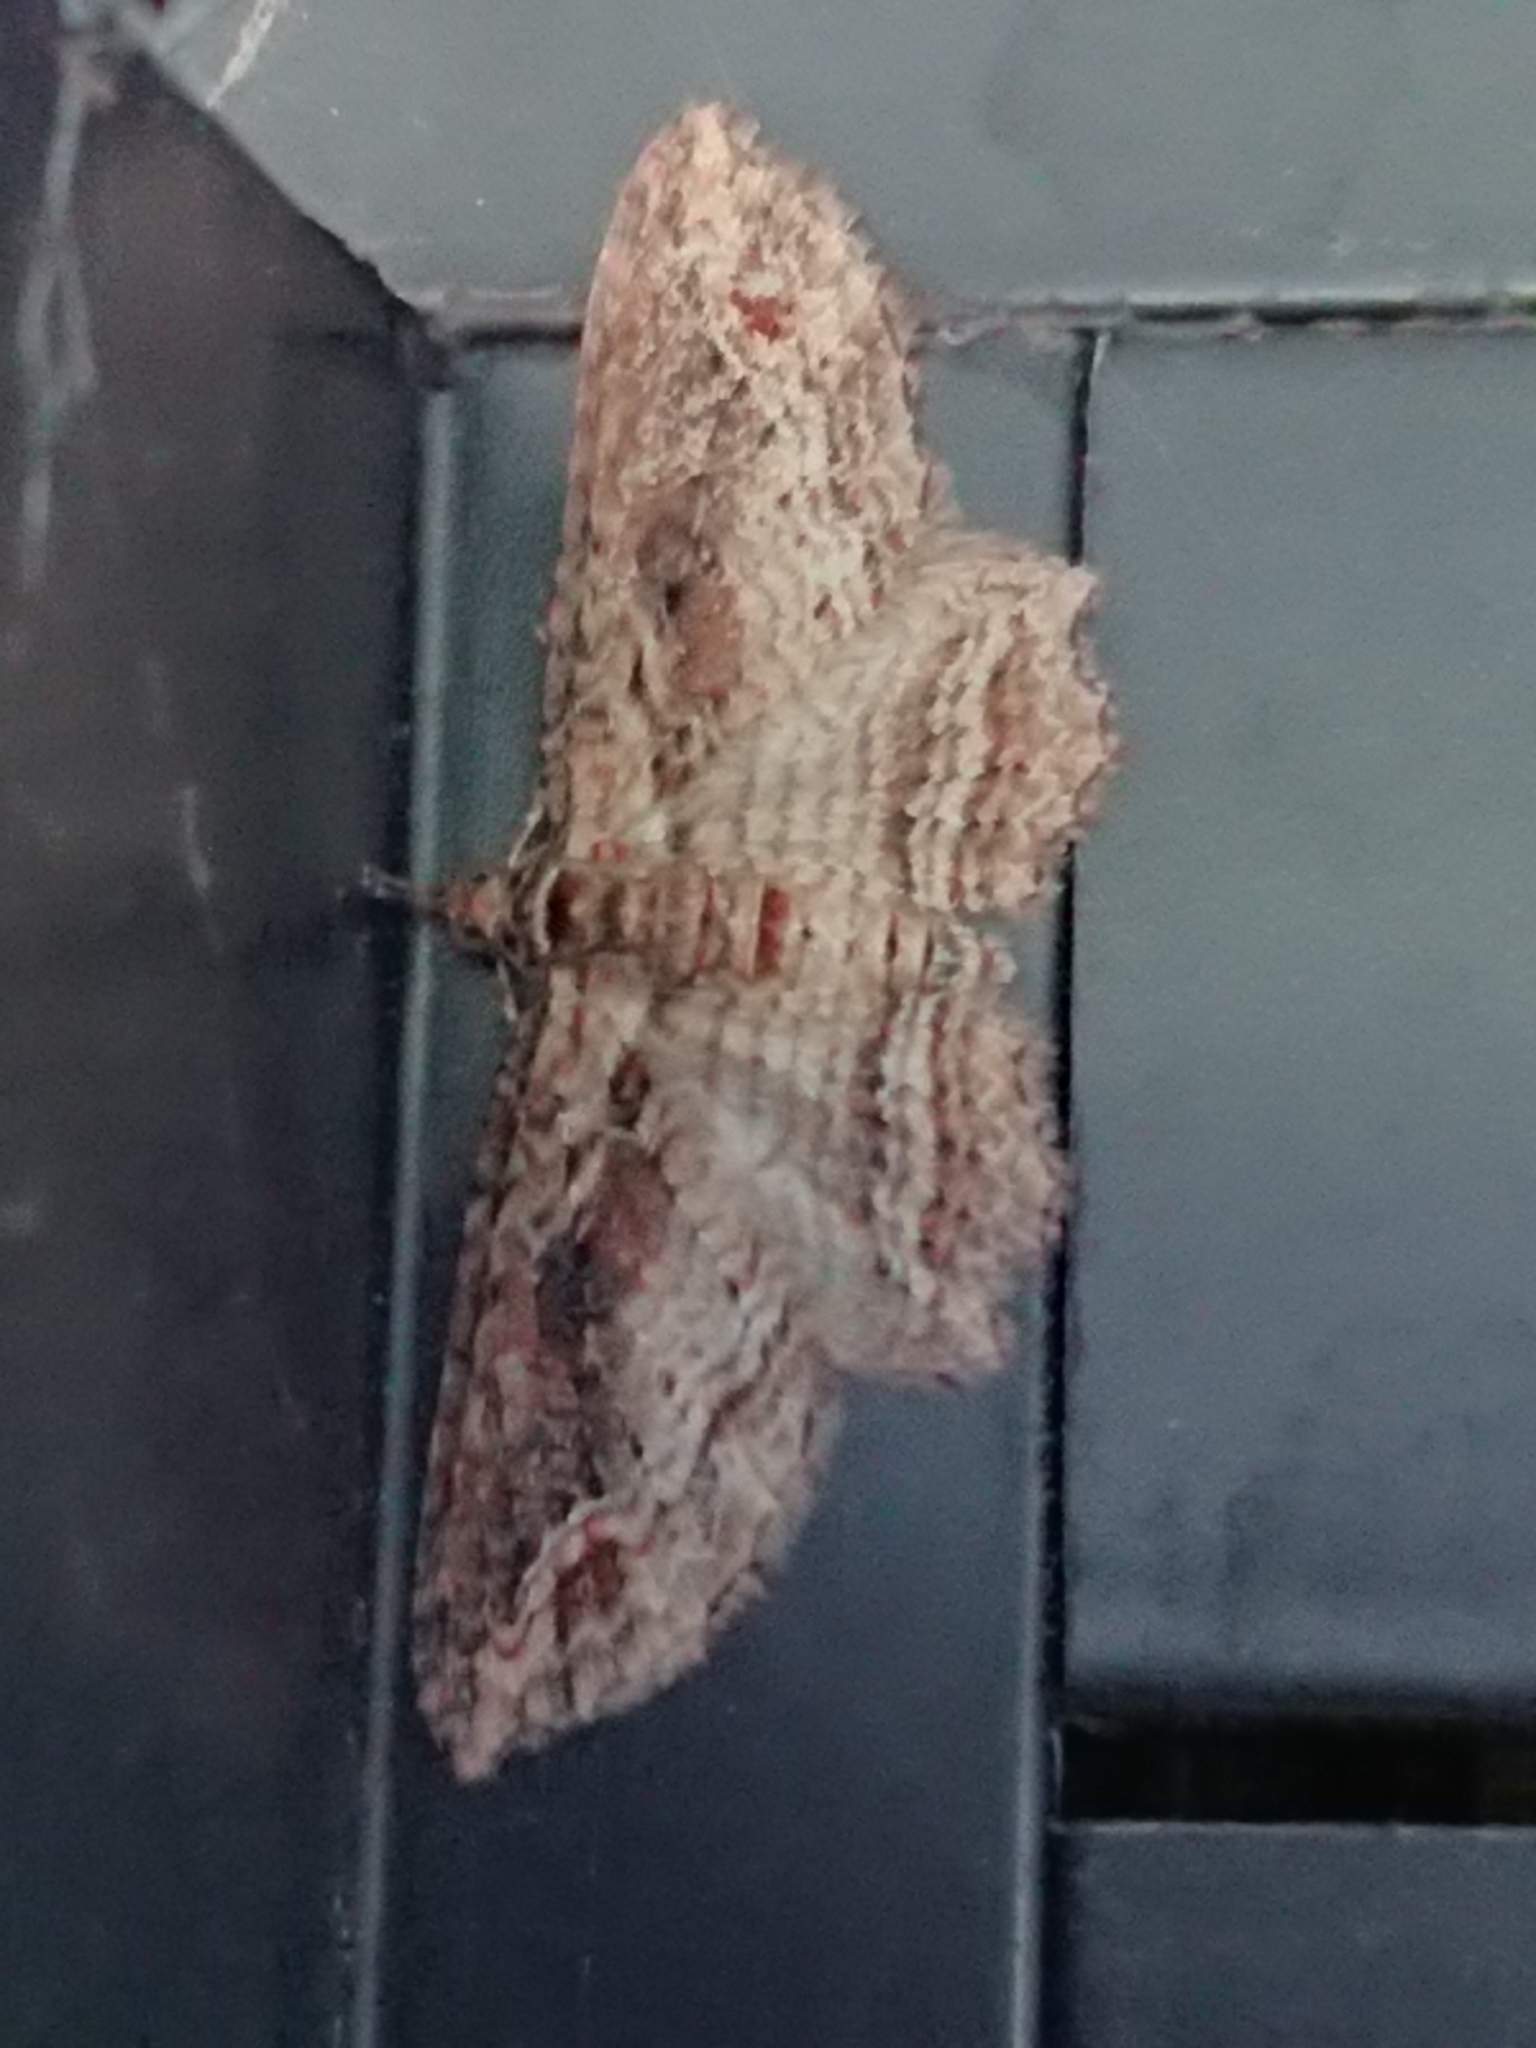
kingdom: Animalia
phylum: Arthropoda
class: Insecta
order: Lepidoptera
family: Geometridae
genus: Chloroclystis
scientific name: Chloroclystis filata
